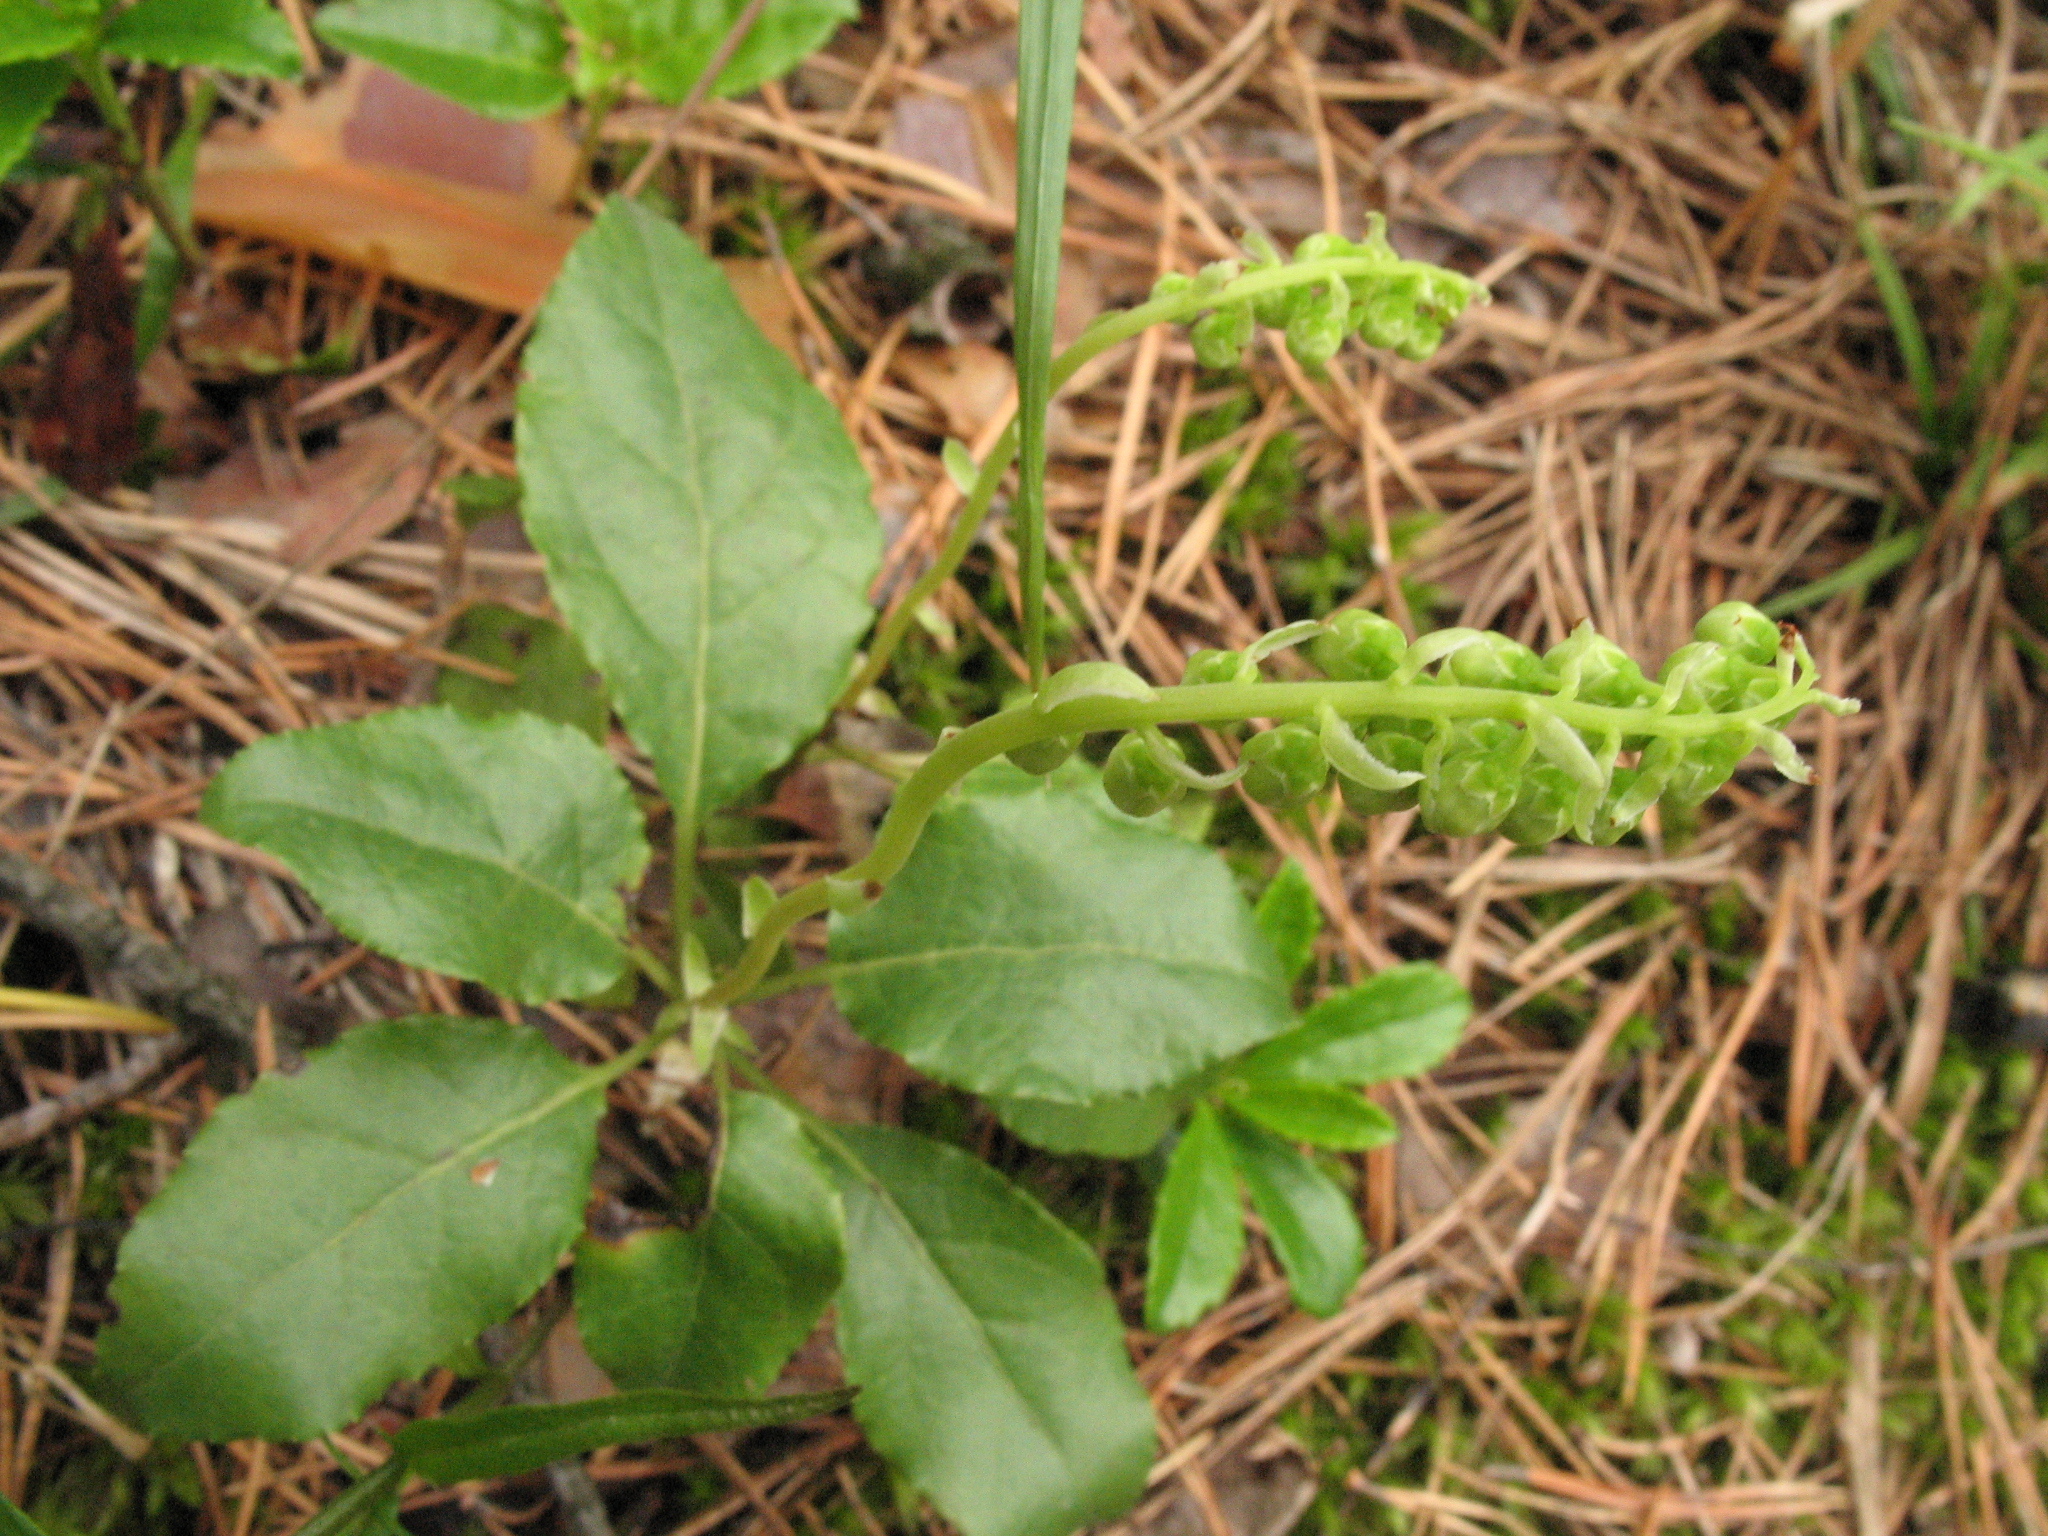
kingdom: Plantae
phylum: Tracheophyta
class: Magnoliopsida
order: Ericales
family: Ericaceae
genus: Orthilia
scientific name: Orthilia secunda
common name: One-sided orthilia
